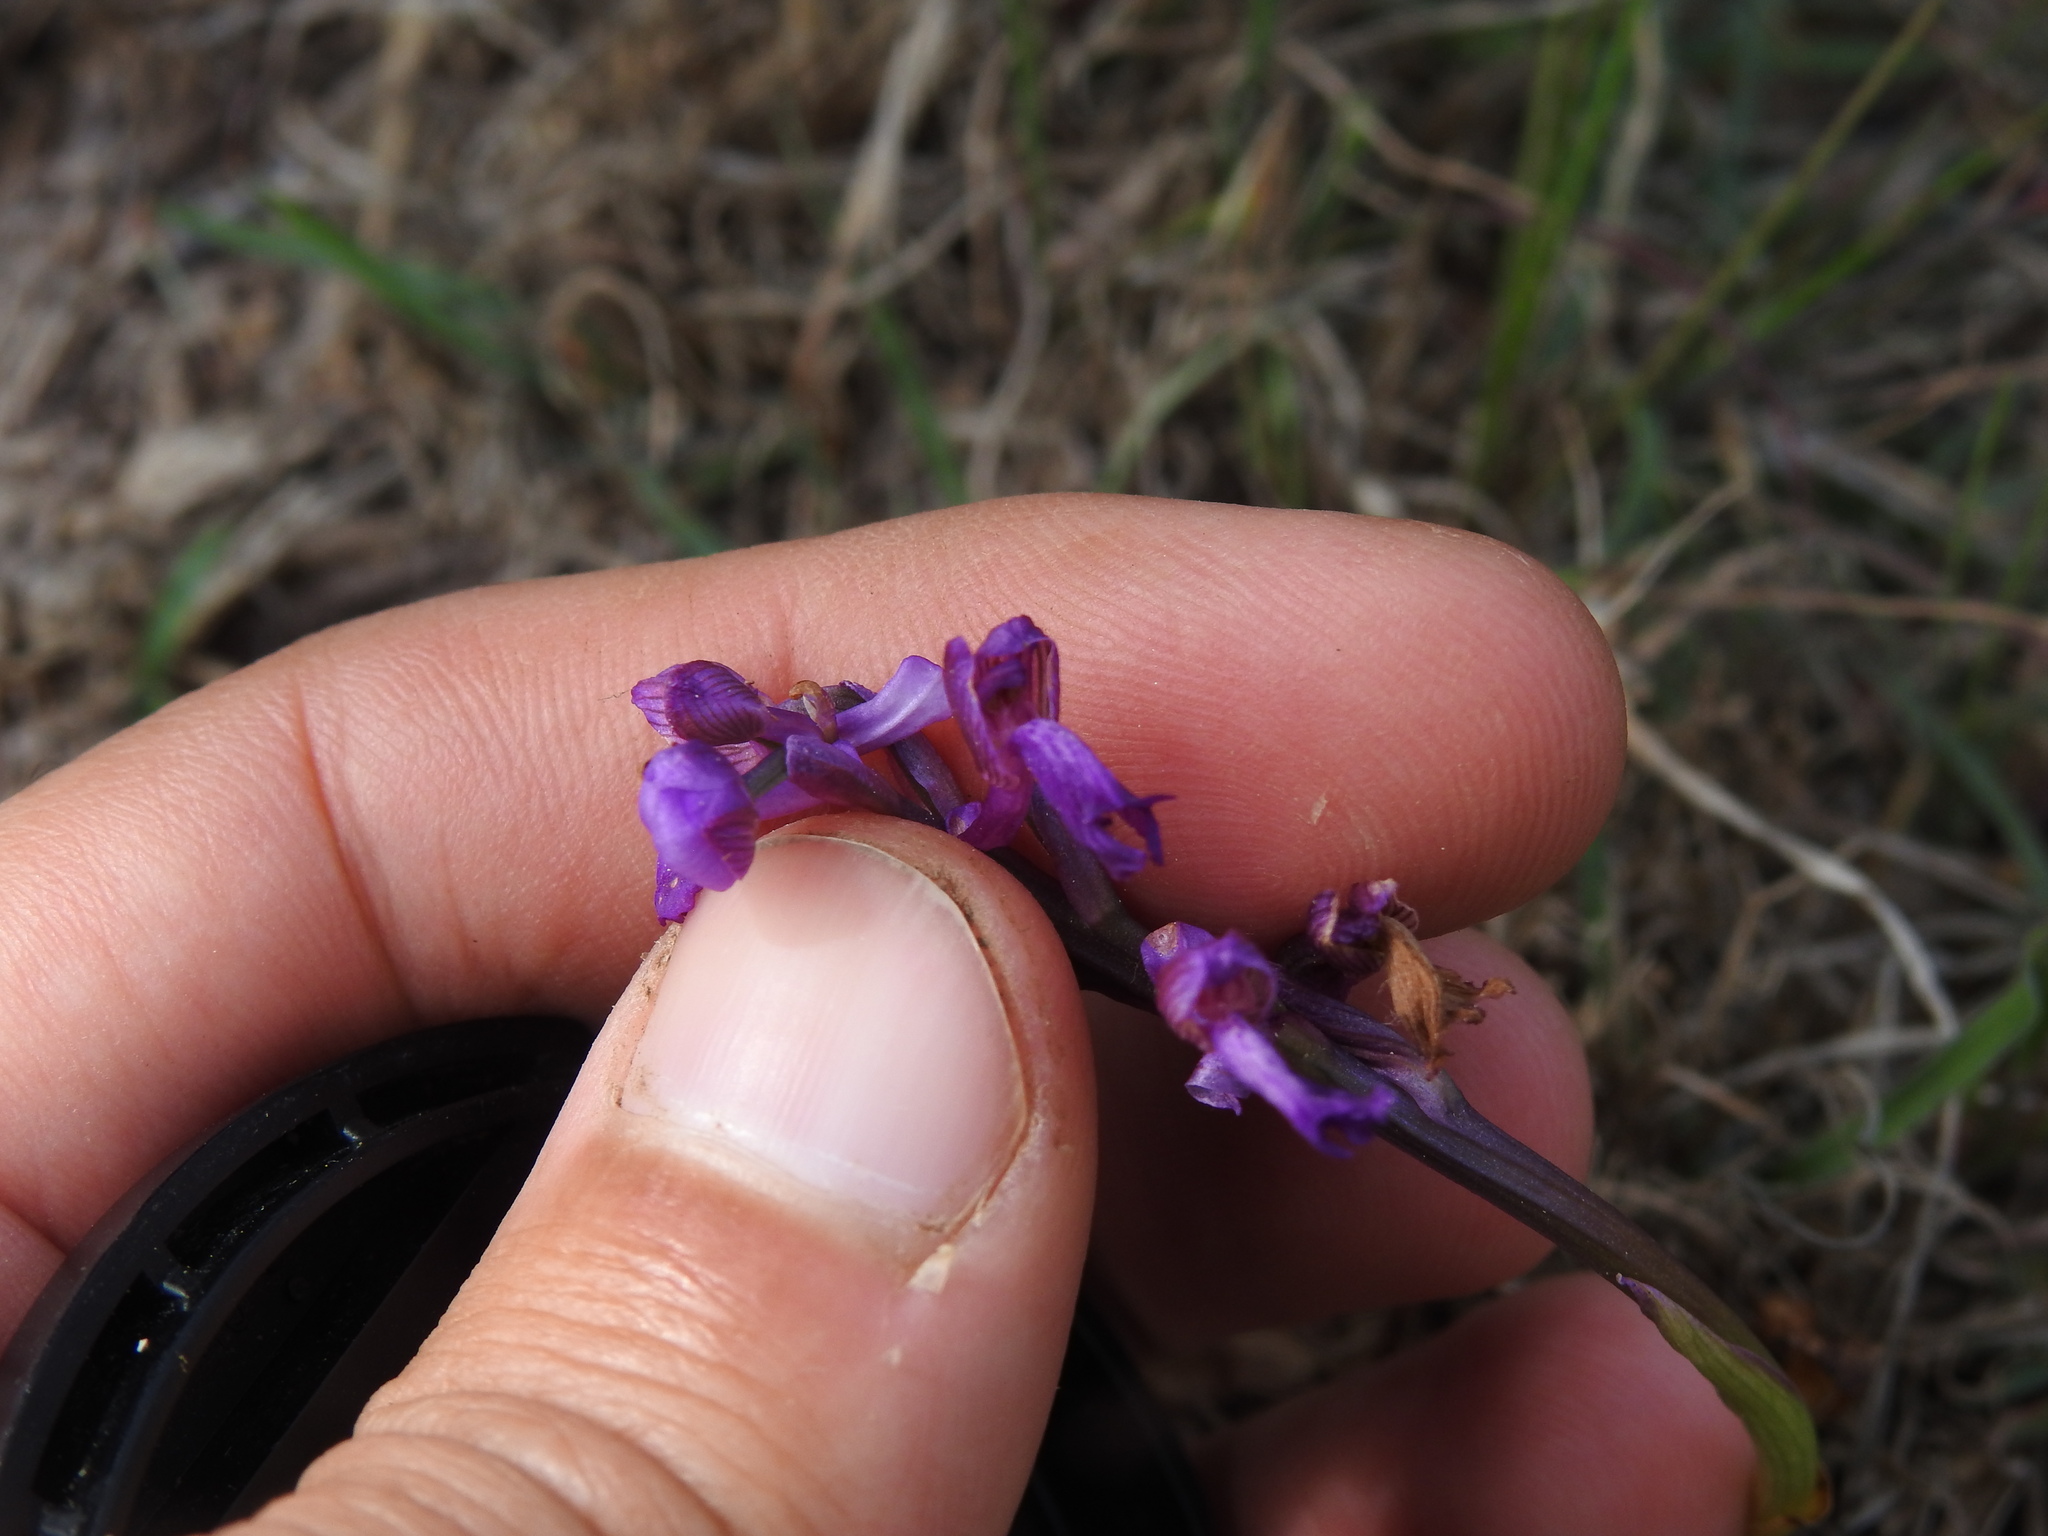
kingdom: Plantae
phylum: Tracheophyta
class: Liliopsida
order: Asparagales
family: Orchidaceae
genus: Anacamptis
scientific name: Anacamptis morio
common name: Green-winged orchid
